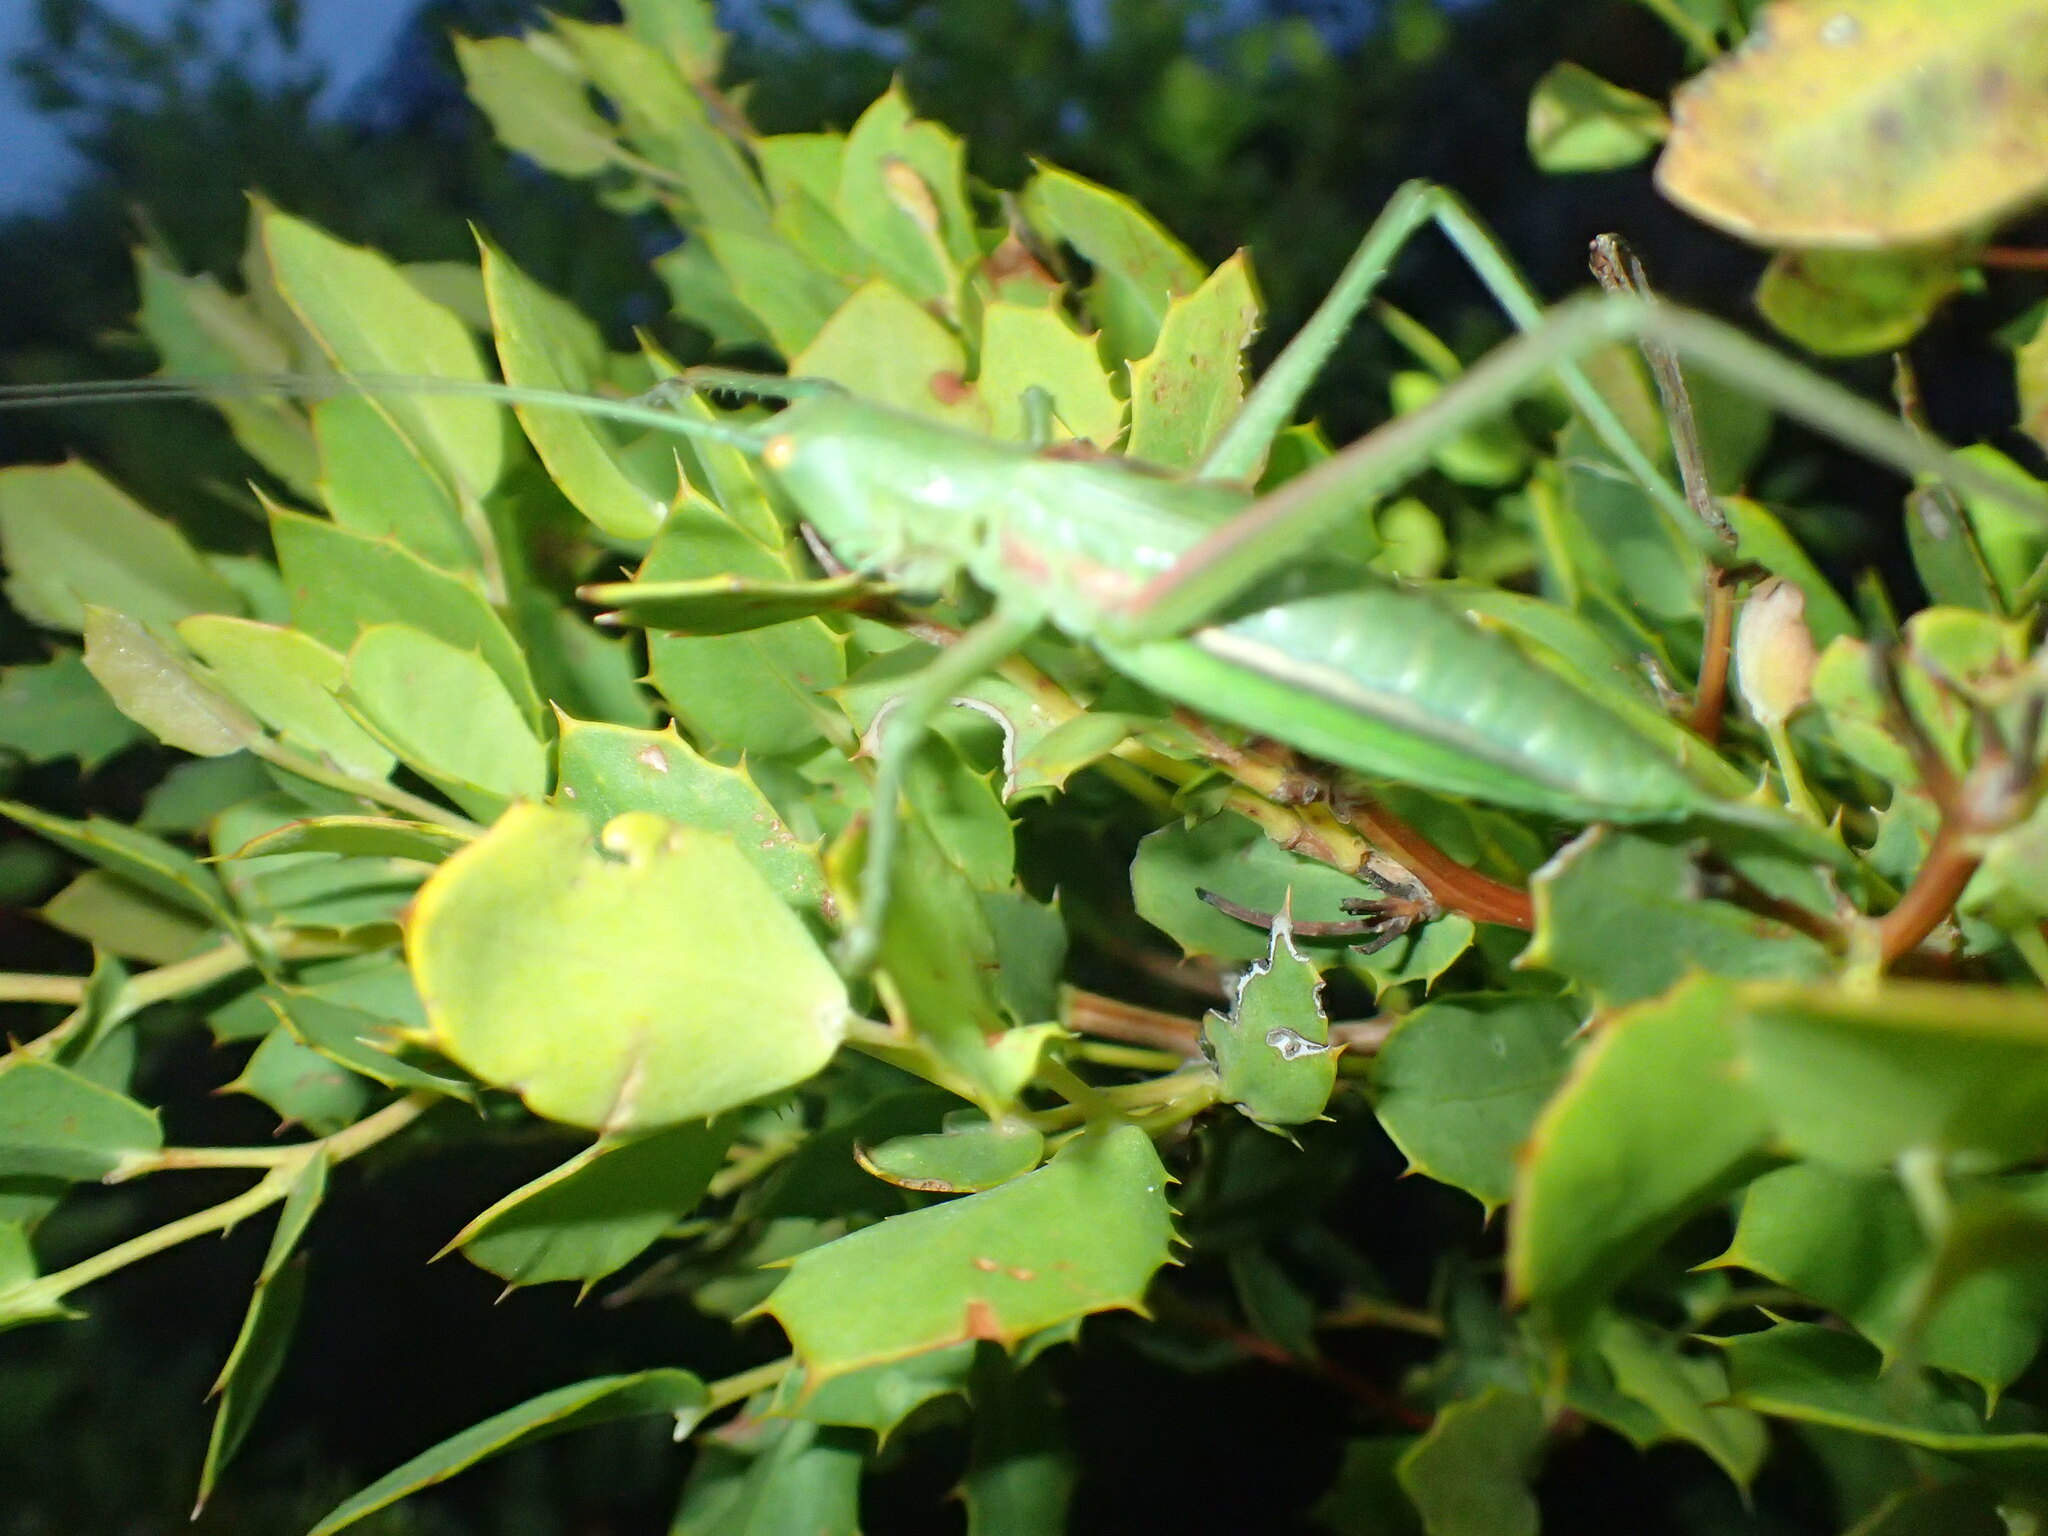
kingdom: Animalia
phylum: Arthropoda
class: Insecta
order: Orthoptera
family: Tettigoniidae
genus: Hemisaga
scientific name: Hemisaga denticulata
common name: Common sluggish katydid
